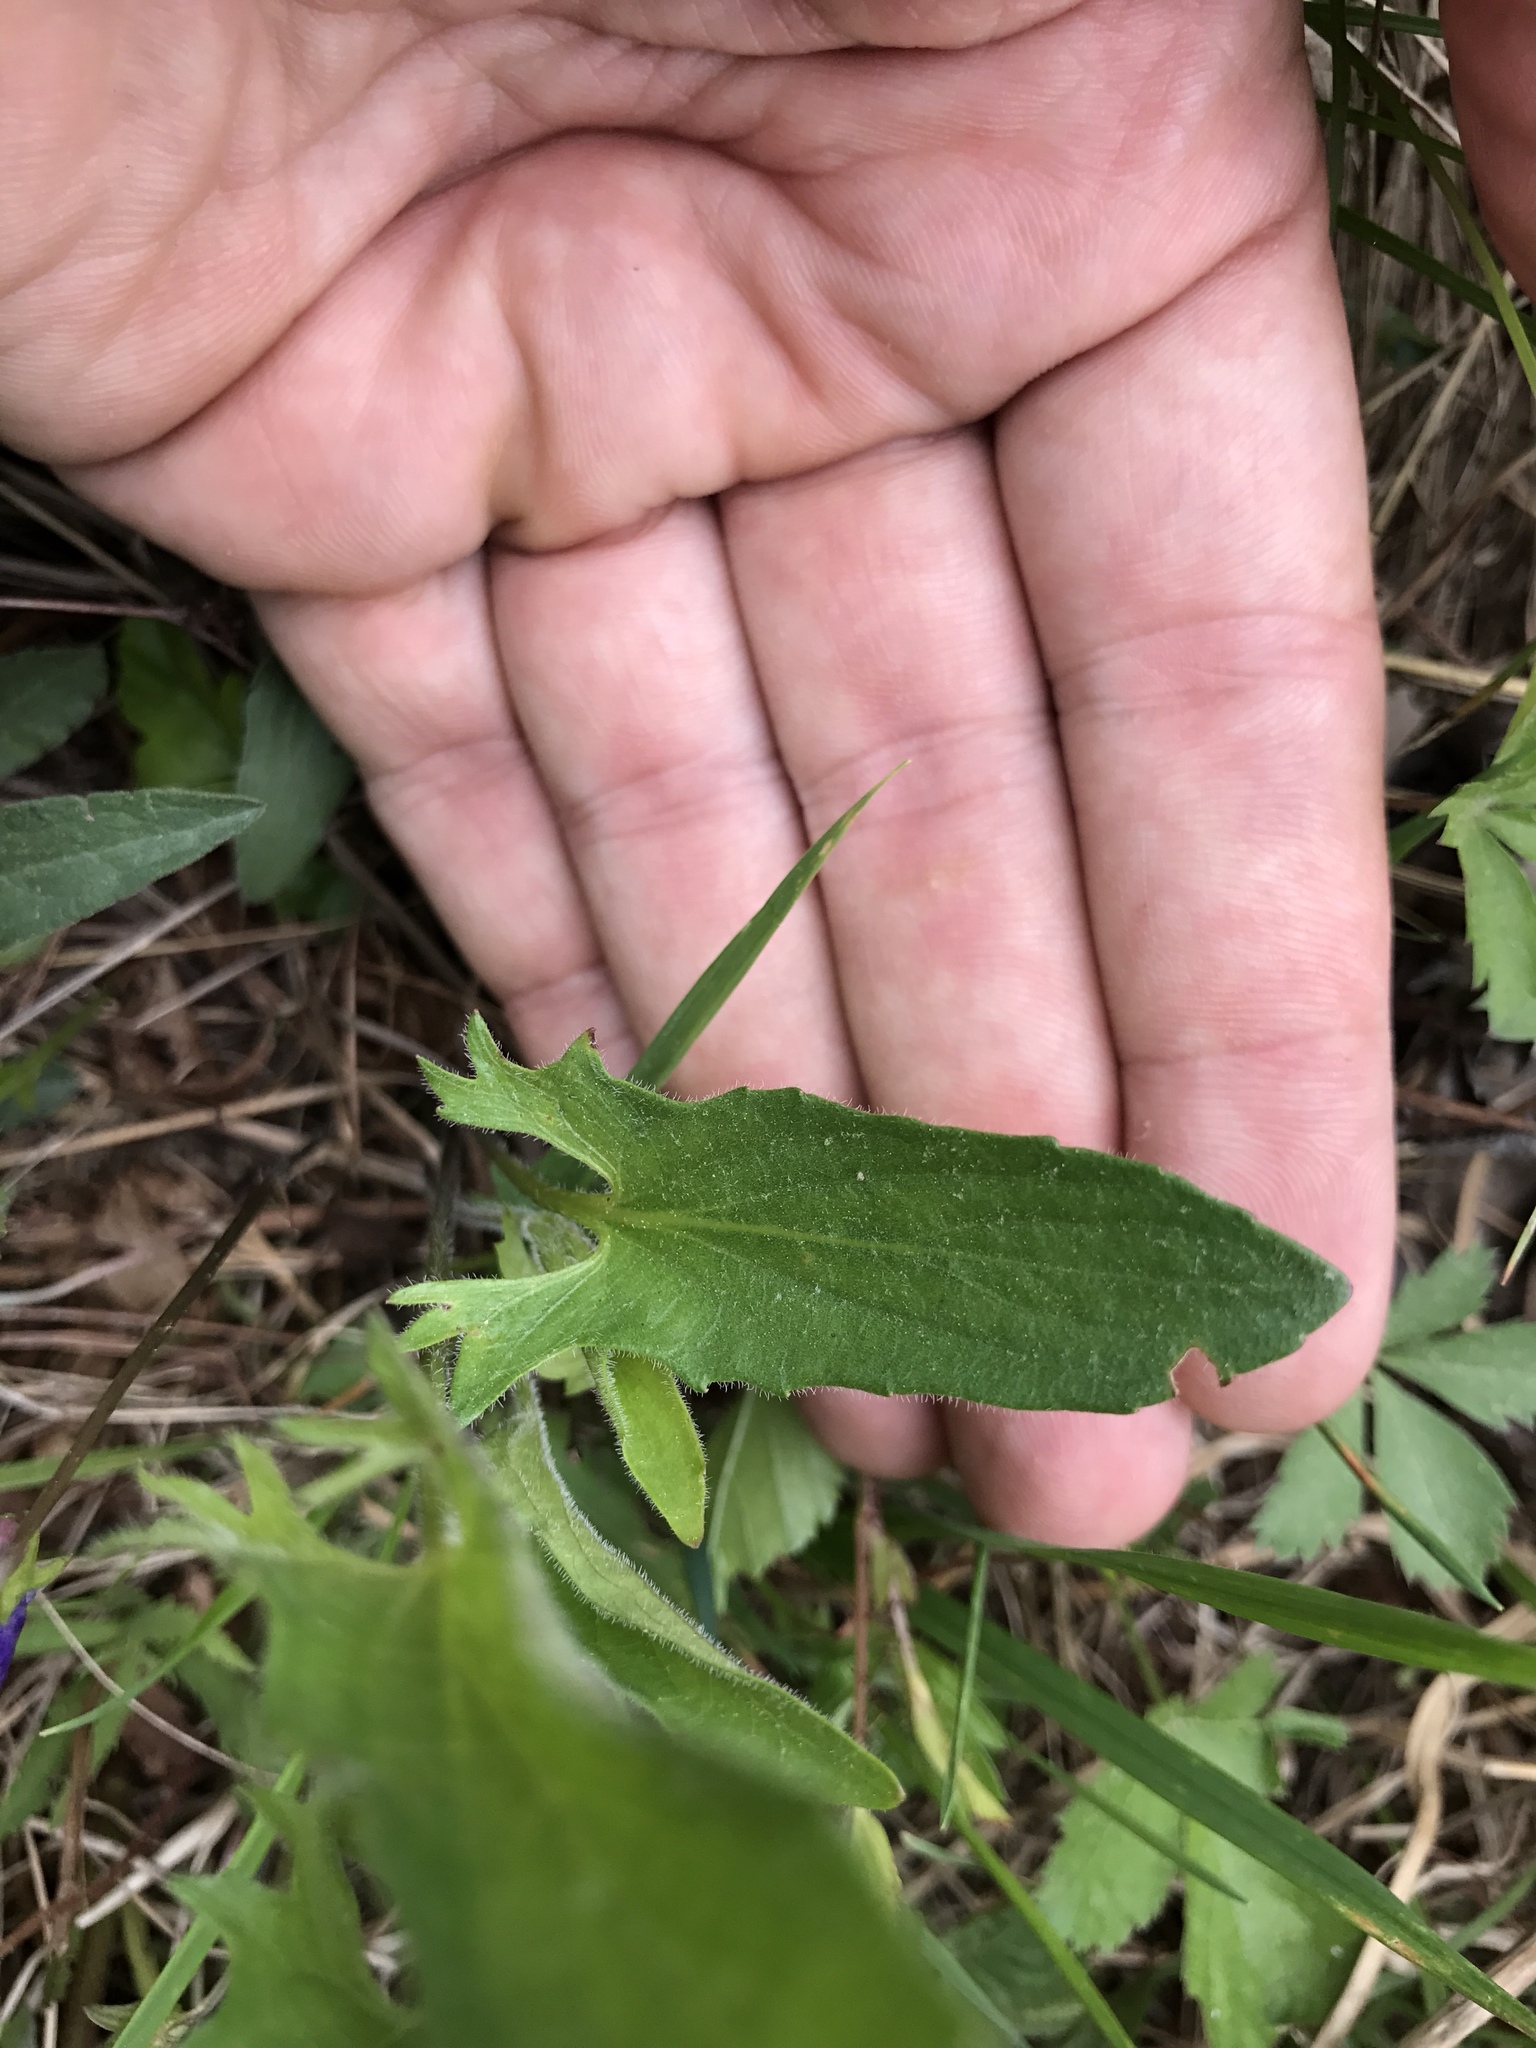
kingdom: Plantae
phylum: Tracheophyta
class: Magnoliopsida
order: Malpighiales
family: Violaceae
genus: Viola
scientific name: Viola sagittata
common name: Arrowhead violet
